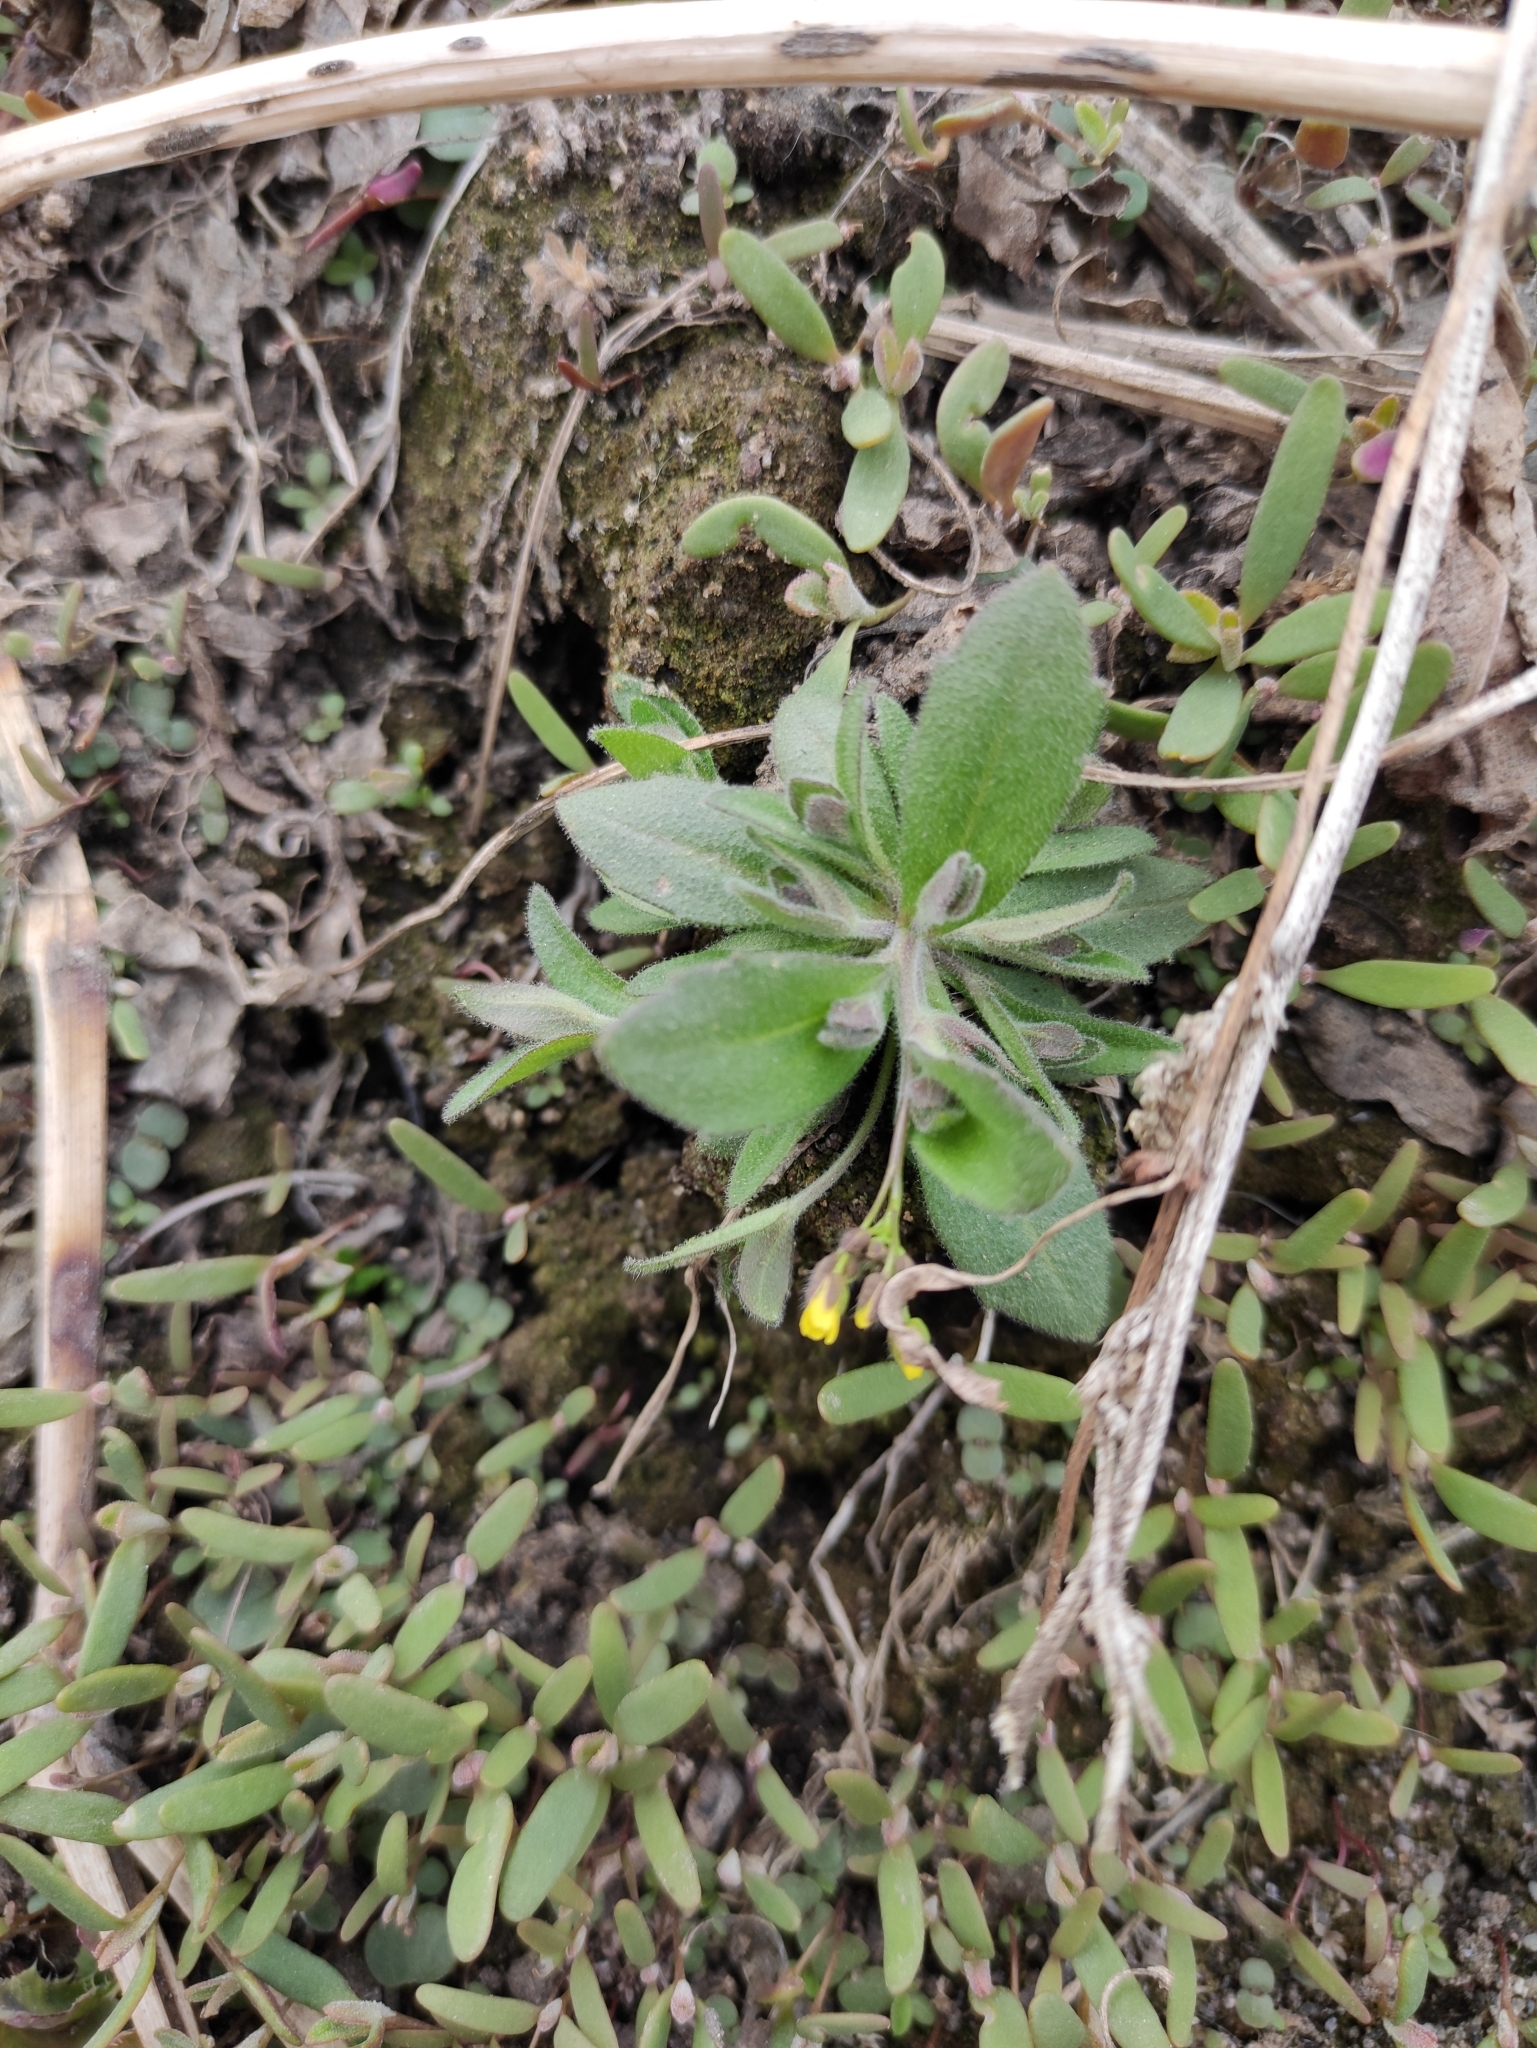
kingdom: Plantae
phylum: Tracheophyta
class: Magnoliopsida
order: Brassicales
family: Brassicaceae
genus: Draba
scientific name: Draba nemorosa
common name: Wood whitlow-grass
